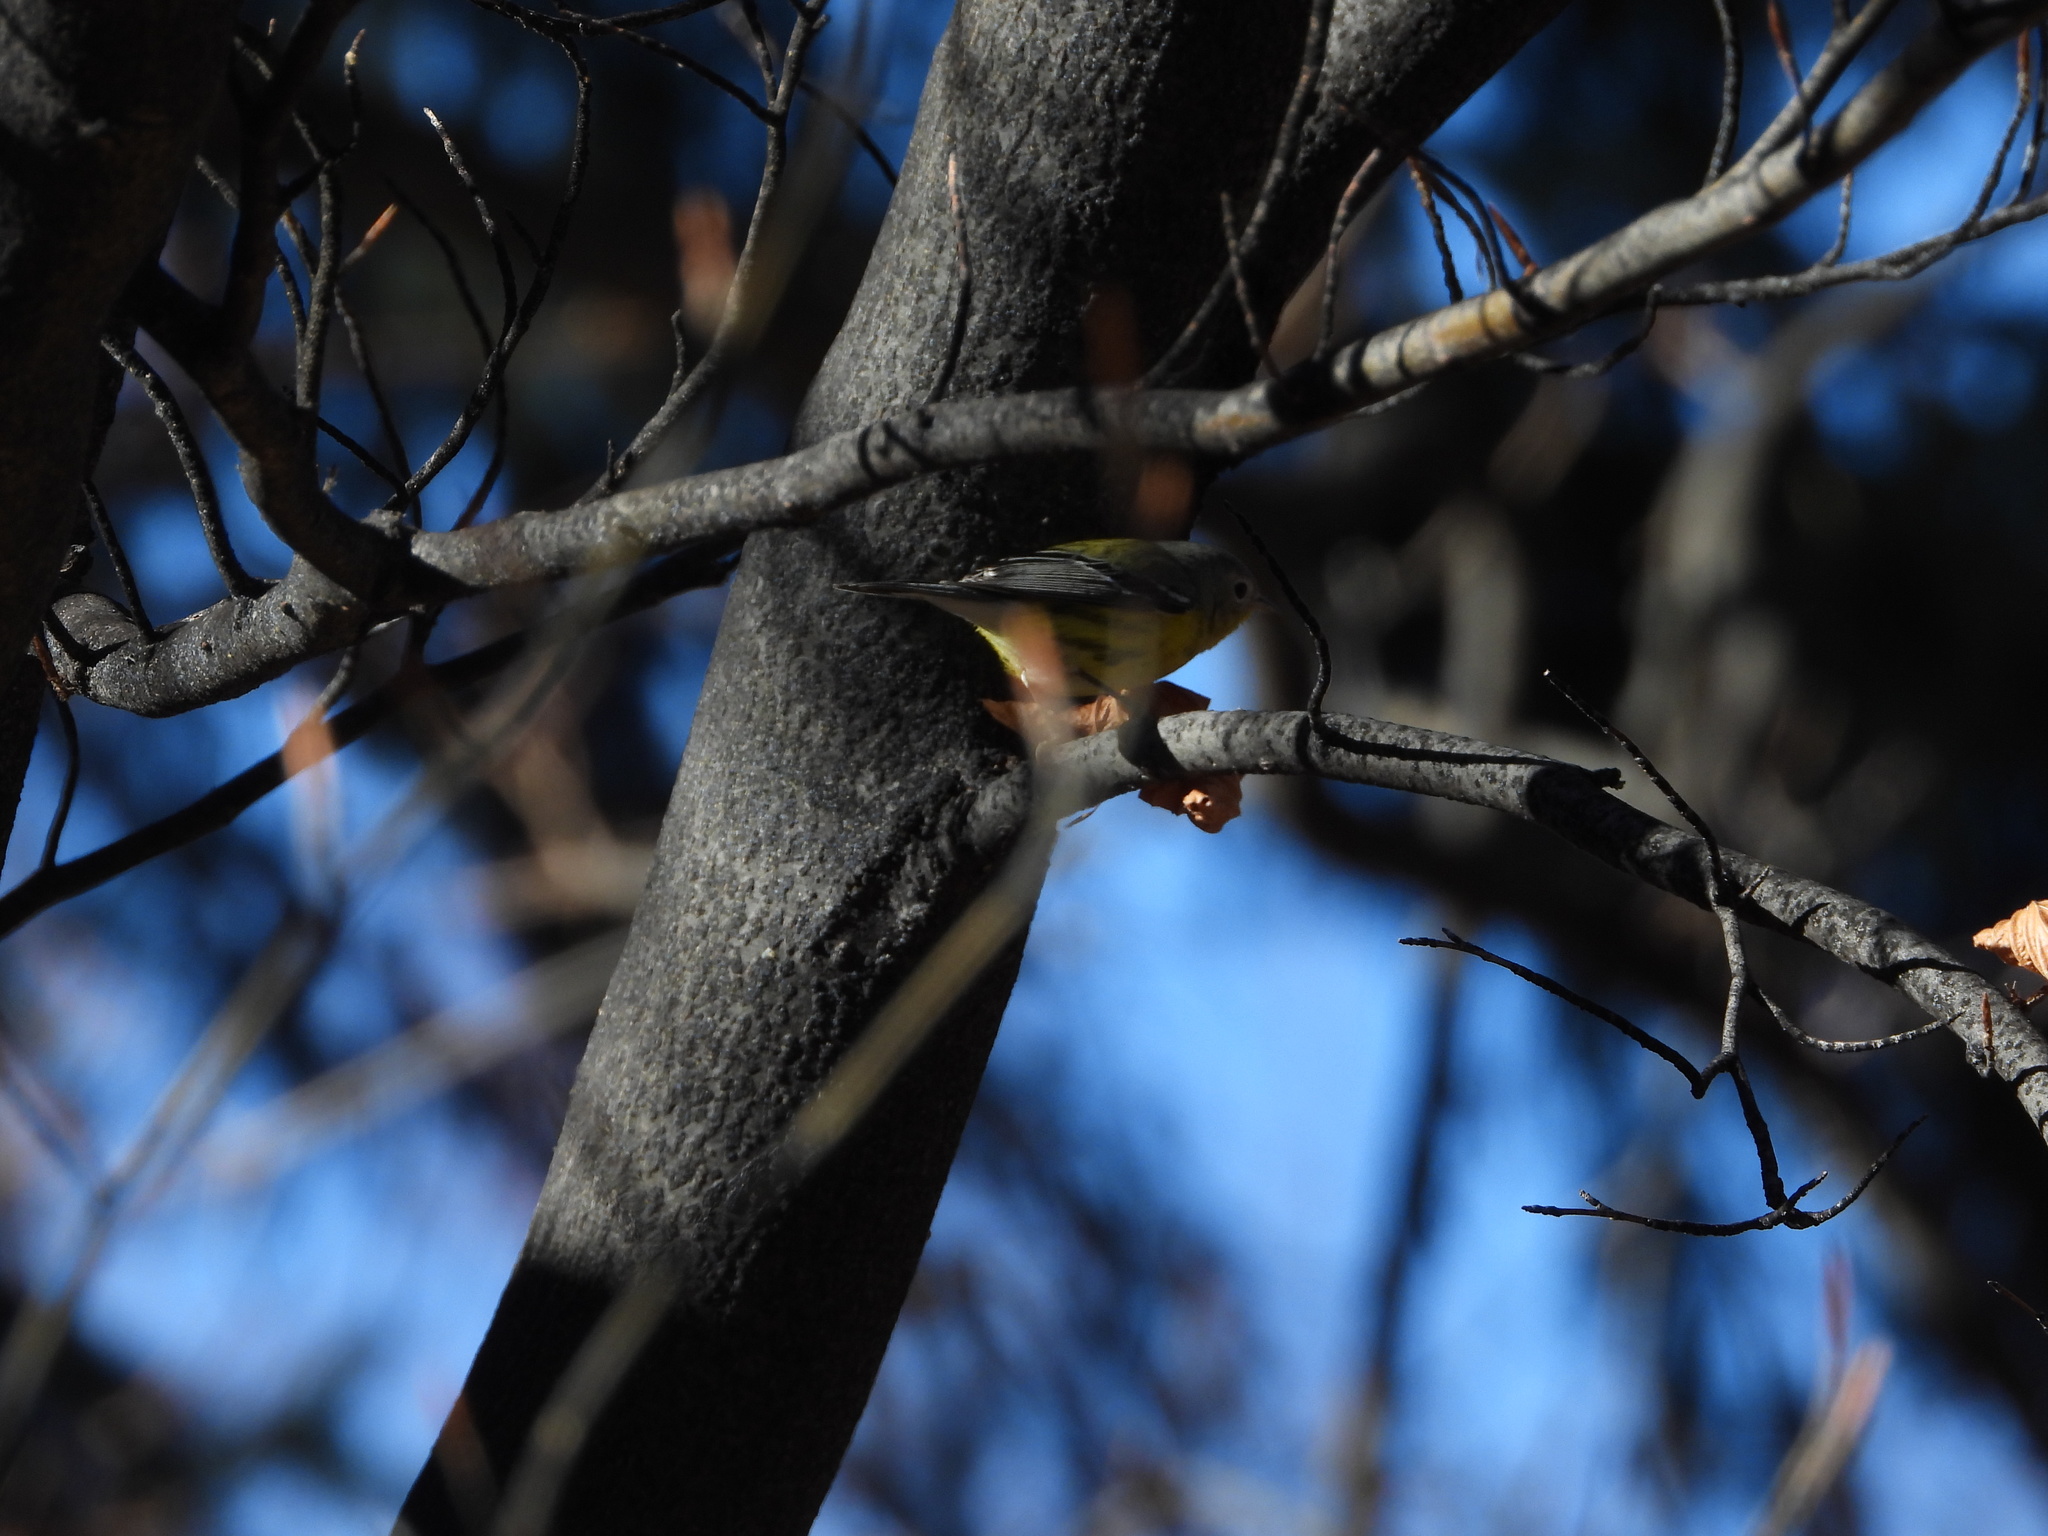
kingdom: Animalia
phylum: Chordata
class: Aves
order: Passeriformes
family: Parulidae
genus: Setophaga
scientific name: Setophaga magnolia
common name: Magnolia warbler
